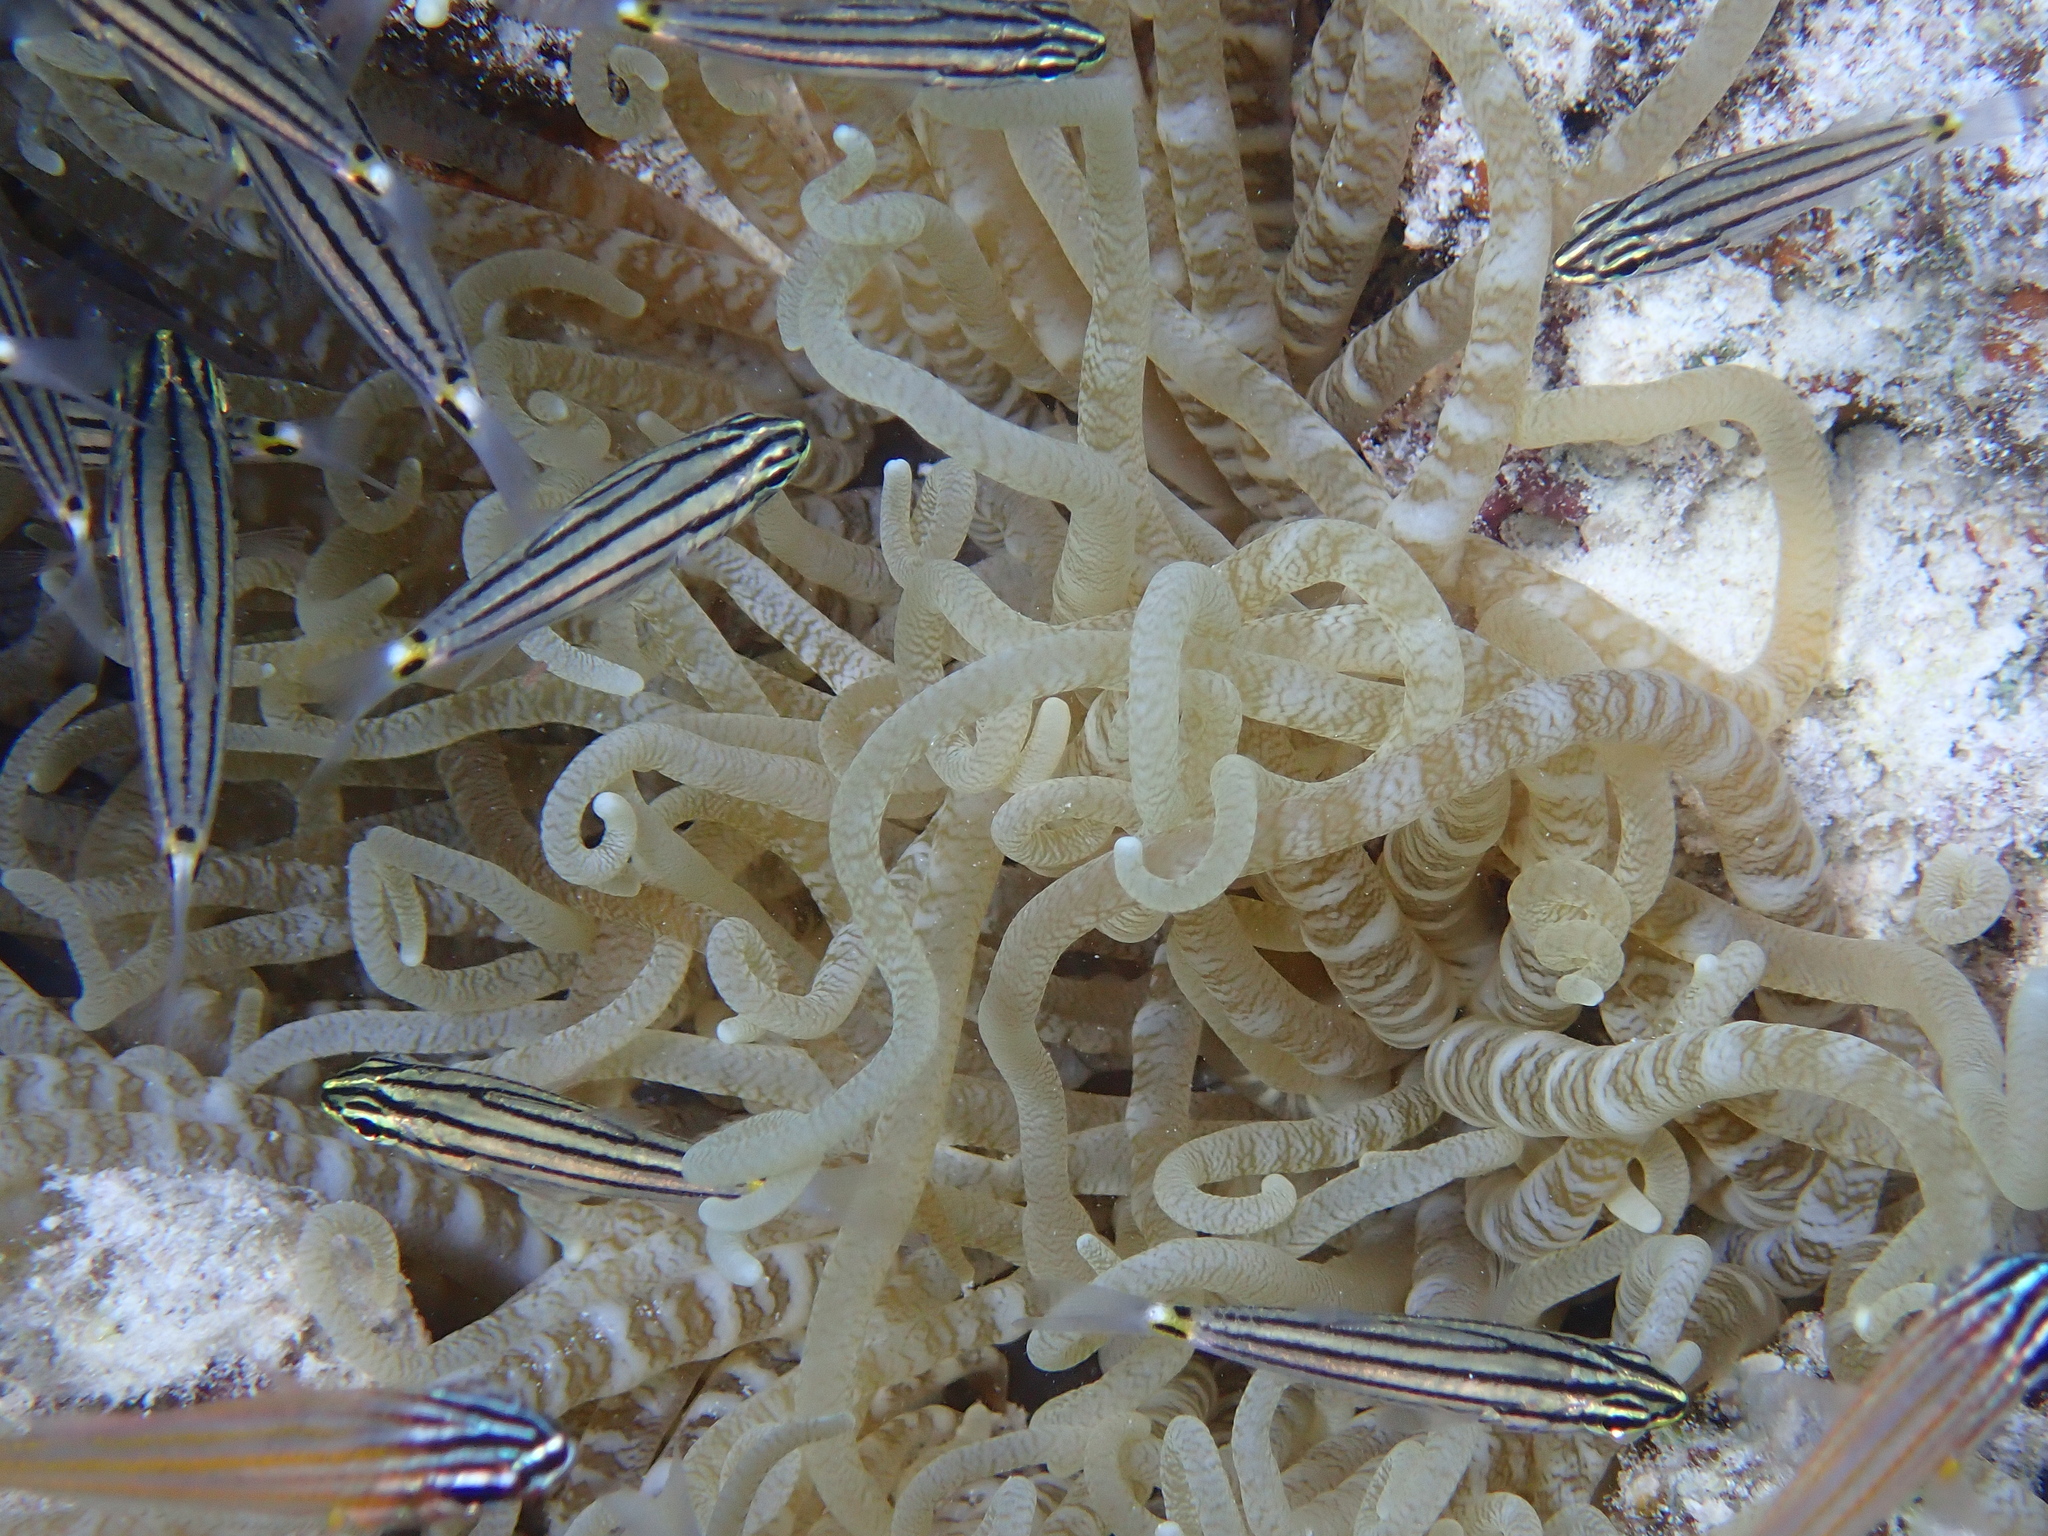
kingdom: Animalia
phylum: Chordata
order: Perciformes
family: Apogonidae
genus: Cheilodipterus
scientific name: Cheilodipterus novemstriatus
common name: Indian ocean twospot cardinalfish
